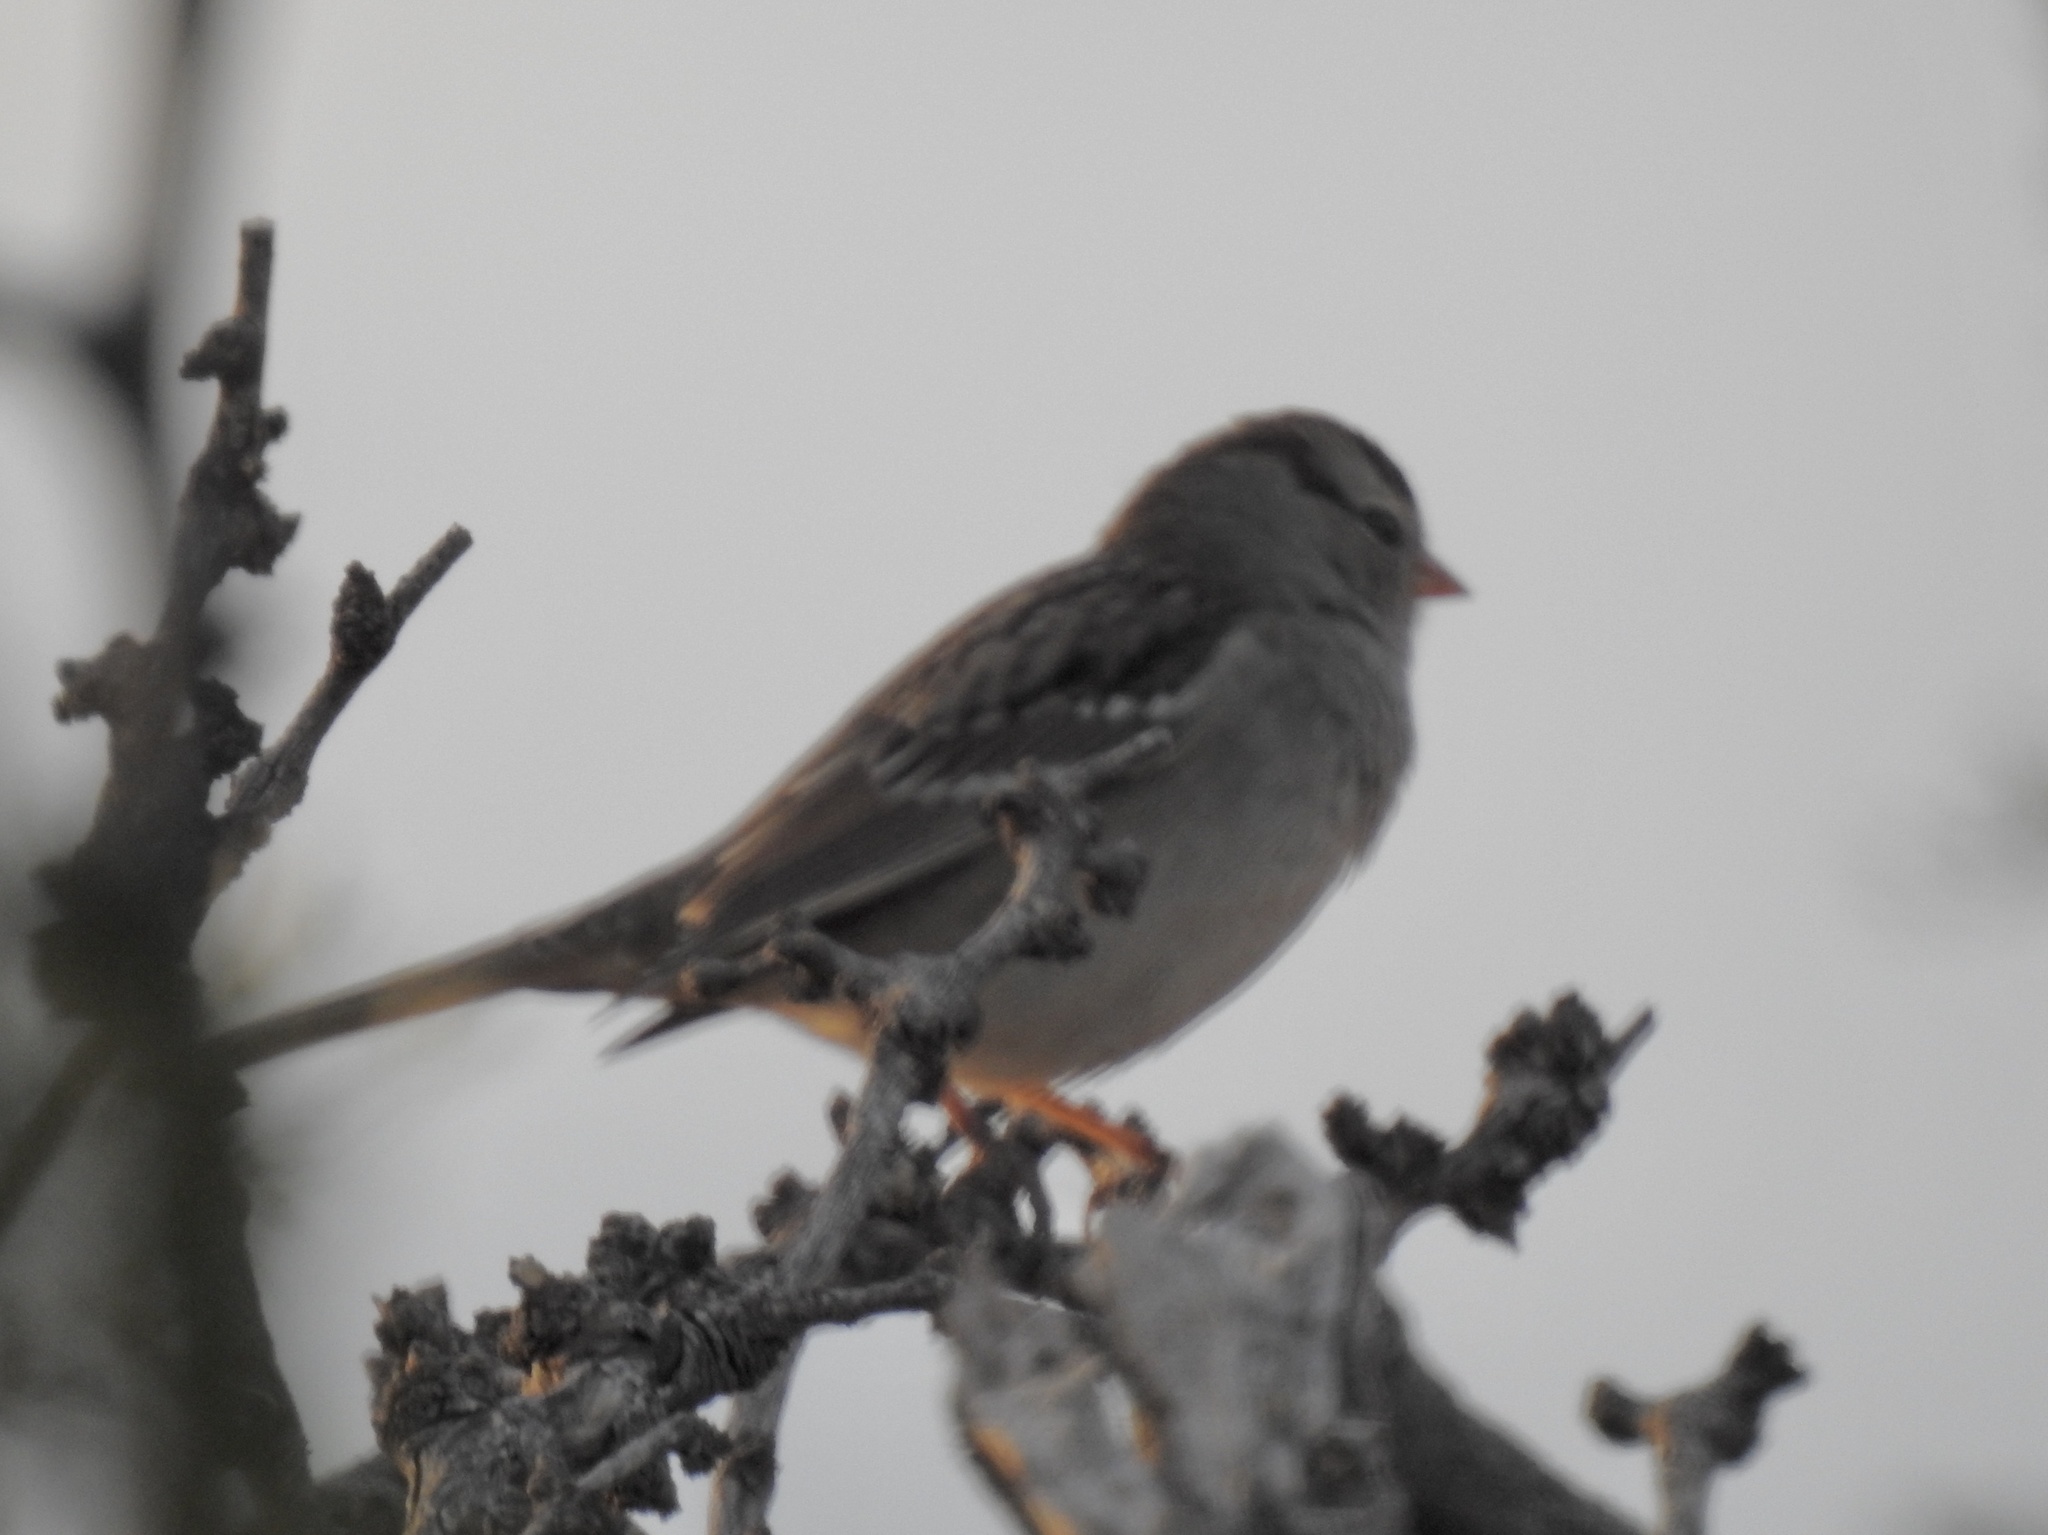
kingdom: Animalia
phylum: Chordata
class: Aves
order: Passeriformes
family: Passerellidae
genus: Zonotrichia
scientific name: Zonotrichia leucophrys
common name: White-crowned sparrow
